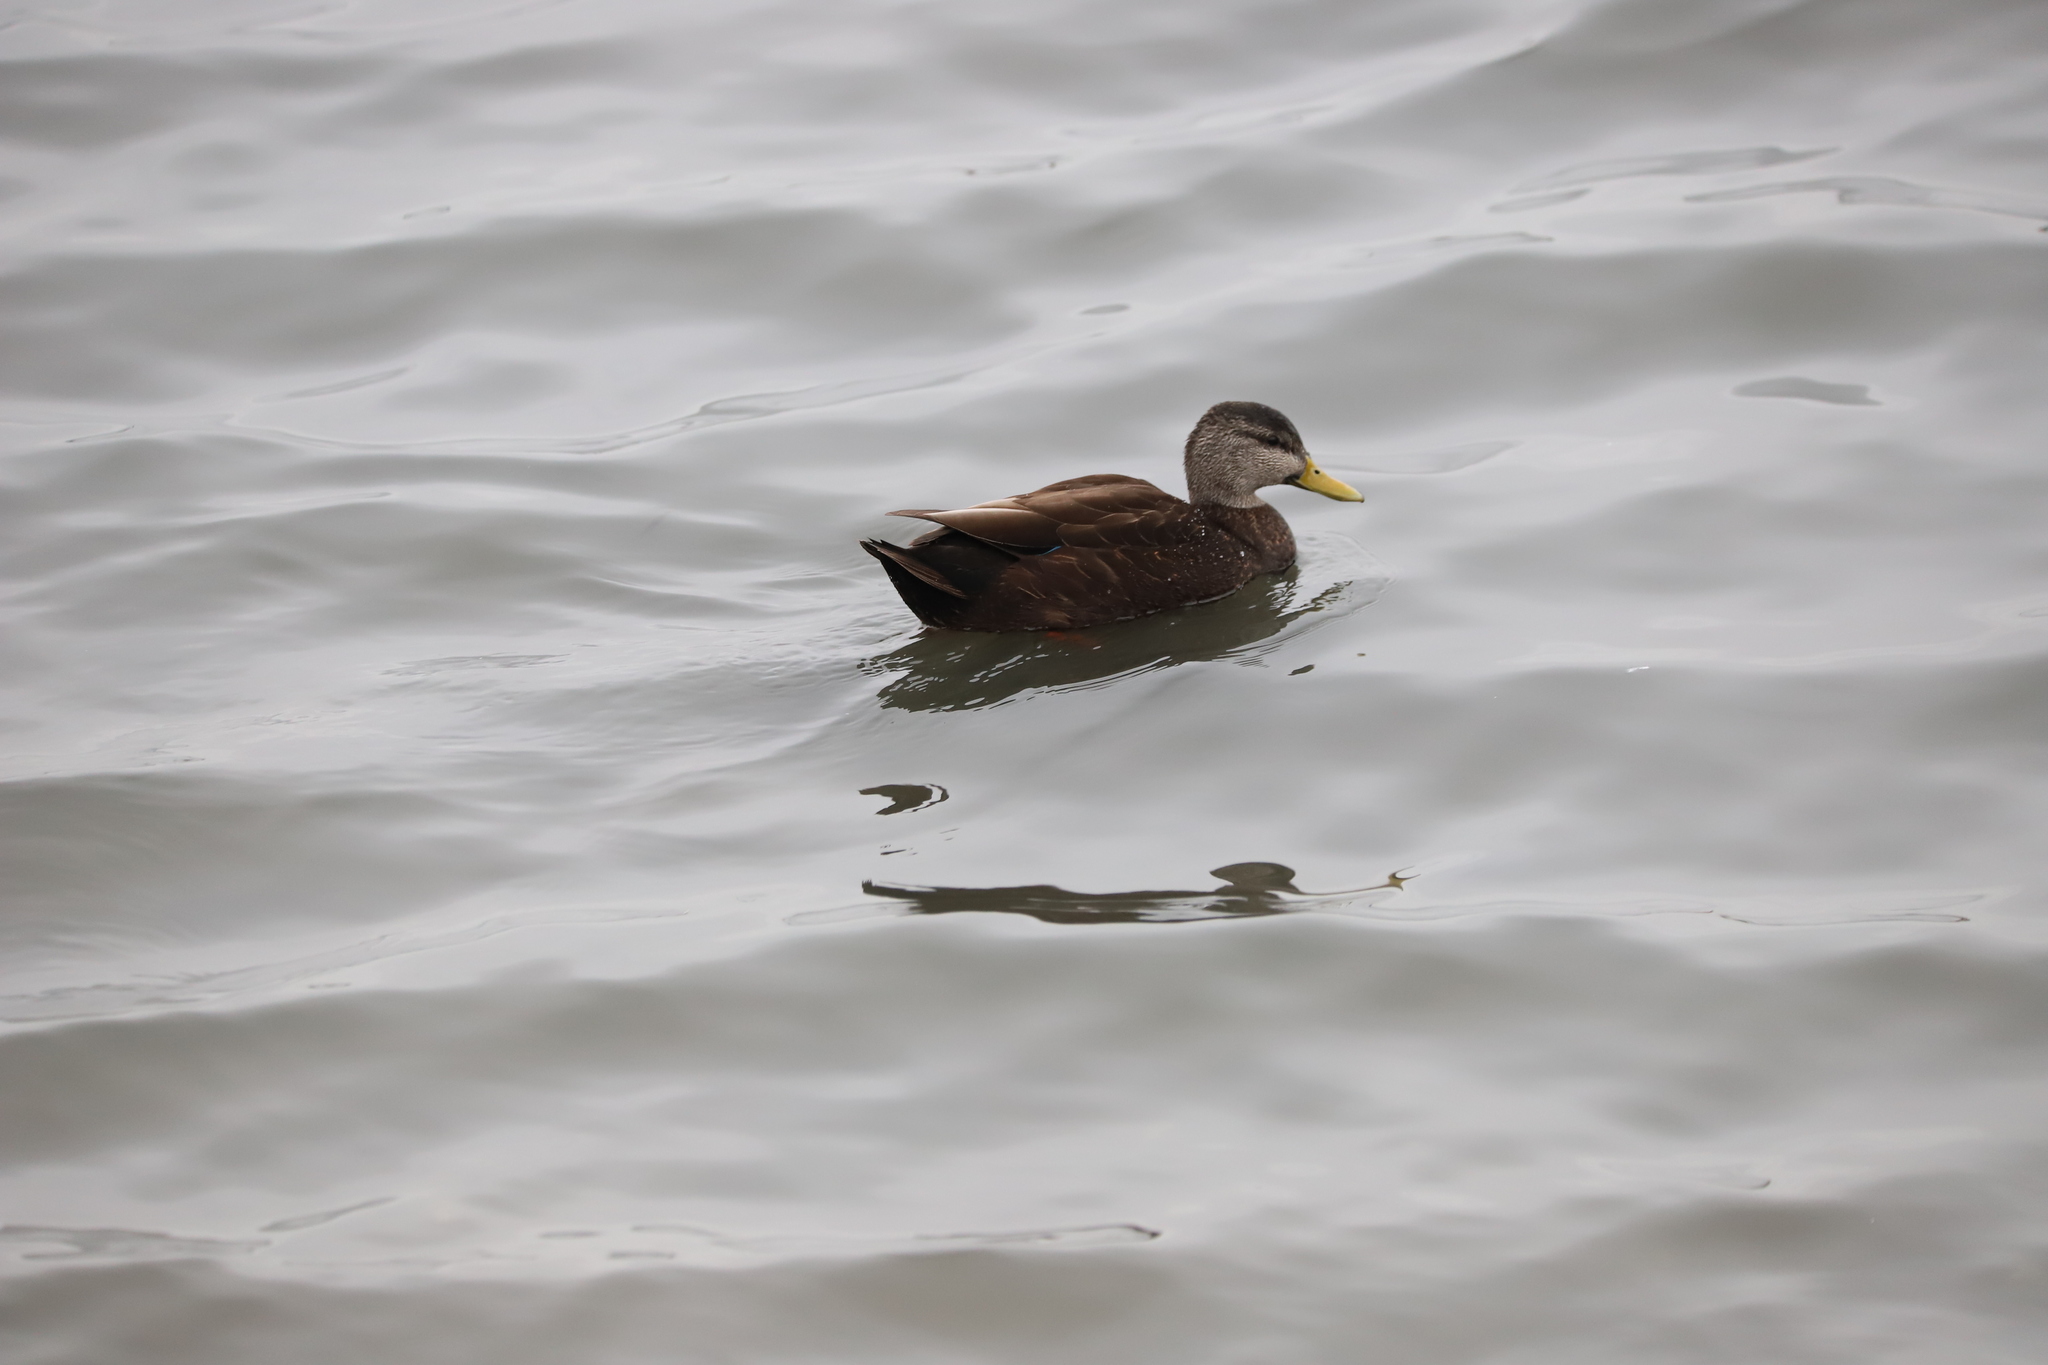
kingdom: Animalia
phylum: Chordata
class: Aves
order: Anseriformes
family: Anatidae
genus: Anas
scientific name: Anas rubripes
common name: American black duck
